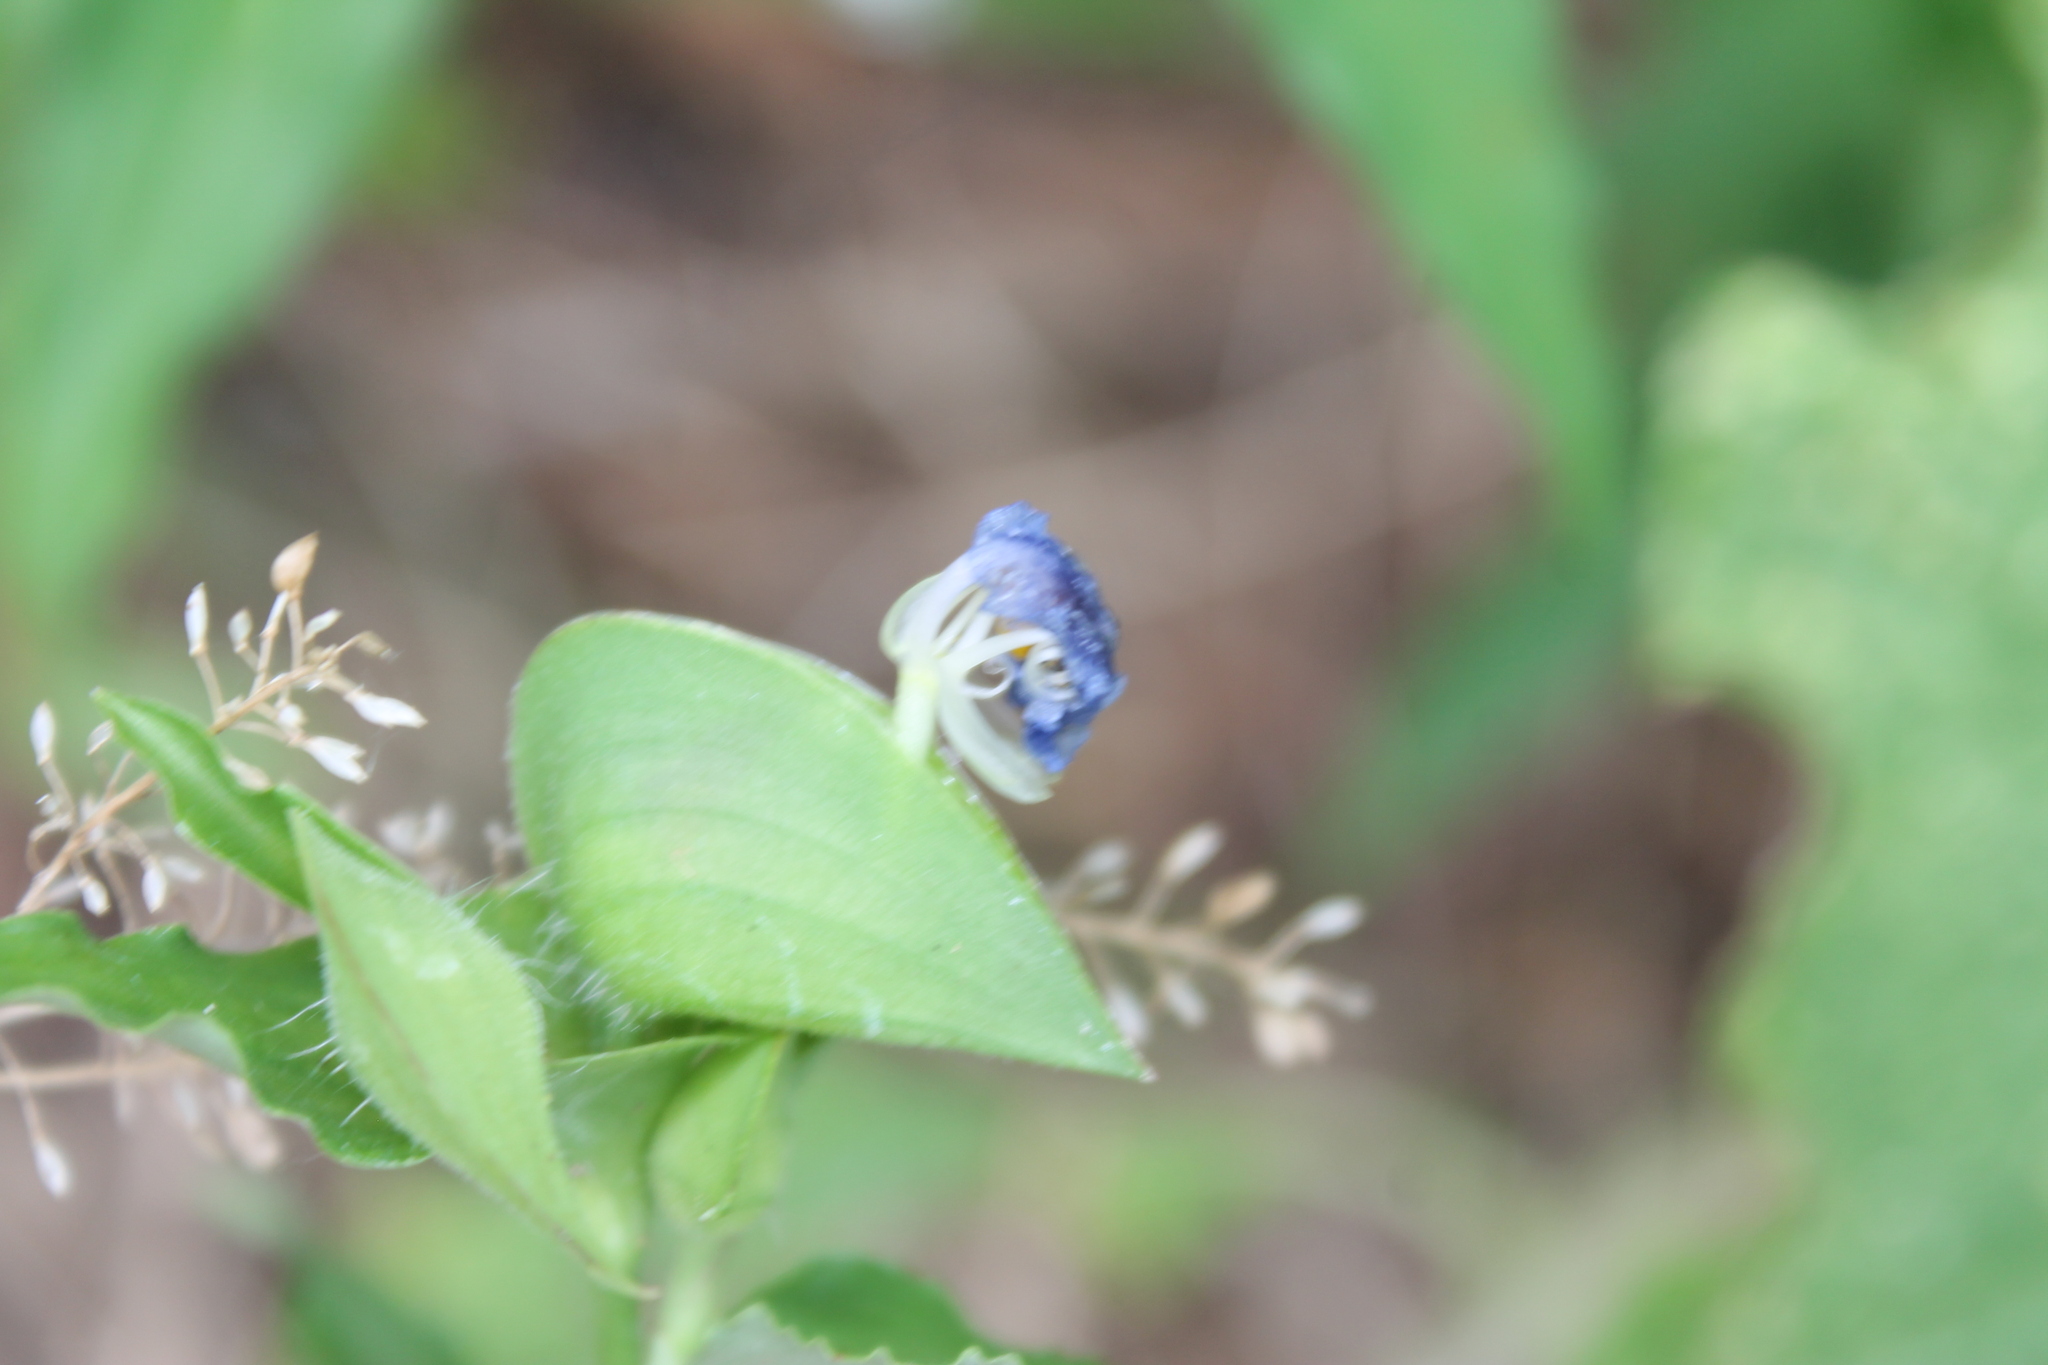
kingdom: Plantae
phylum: Tracheophyta
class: Liliopsida
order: Commelinales
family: Commelinaceae
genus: Commelina
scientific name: Commelina erecta
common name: Blousel blommetjie
